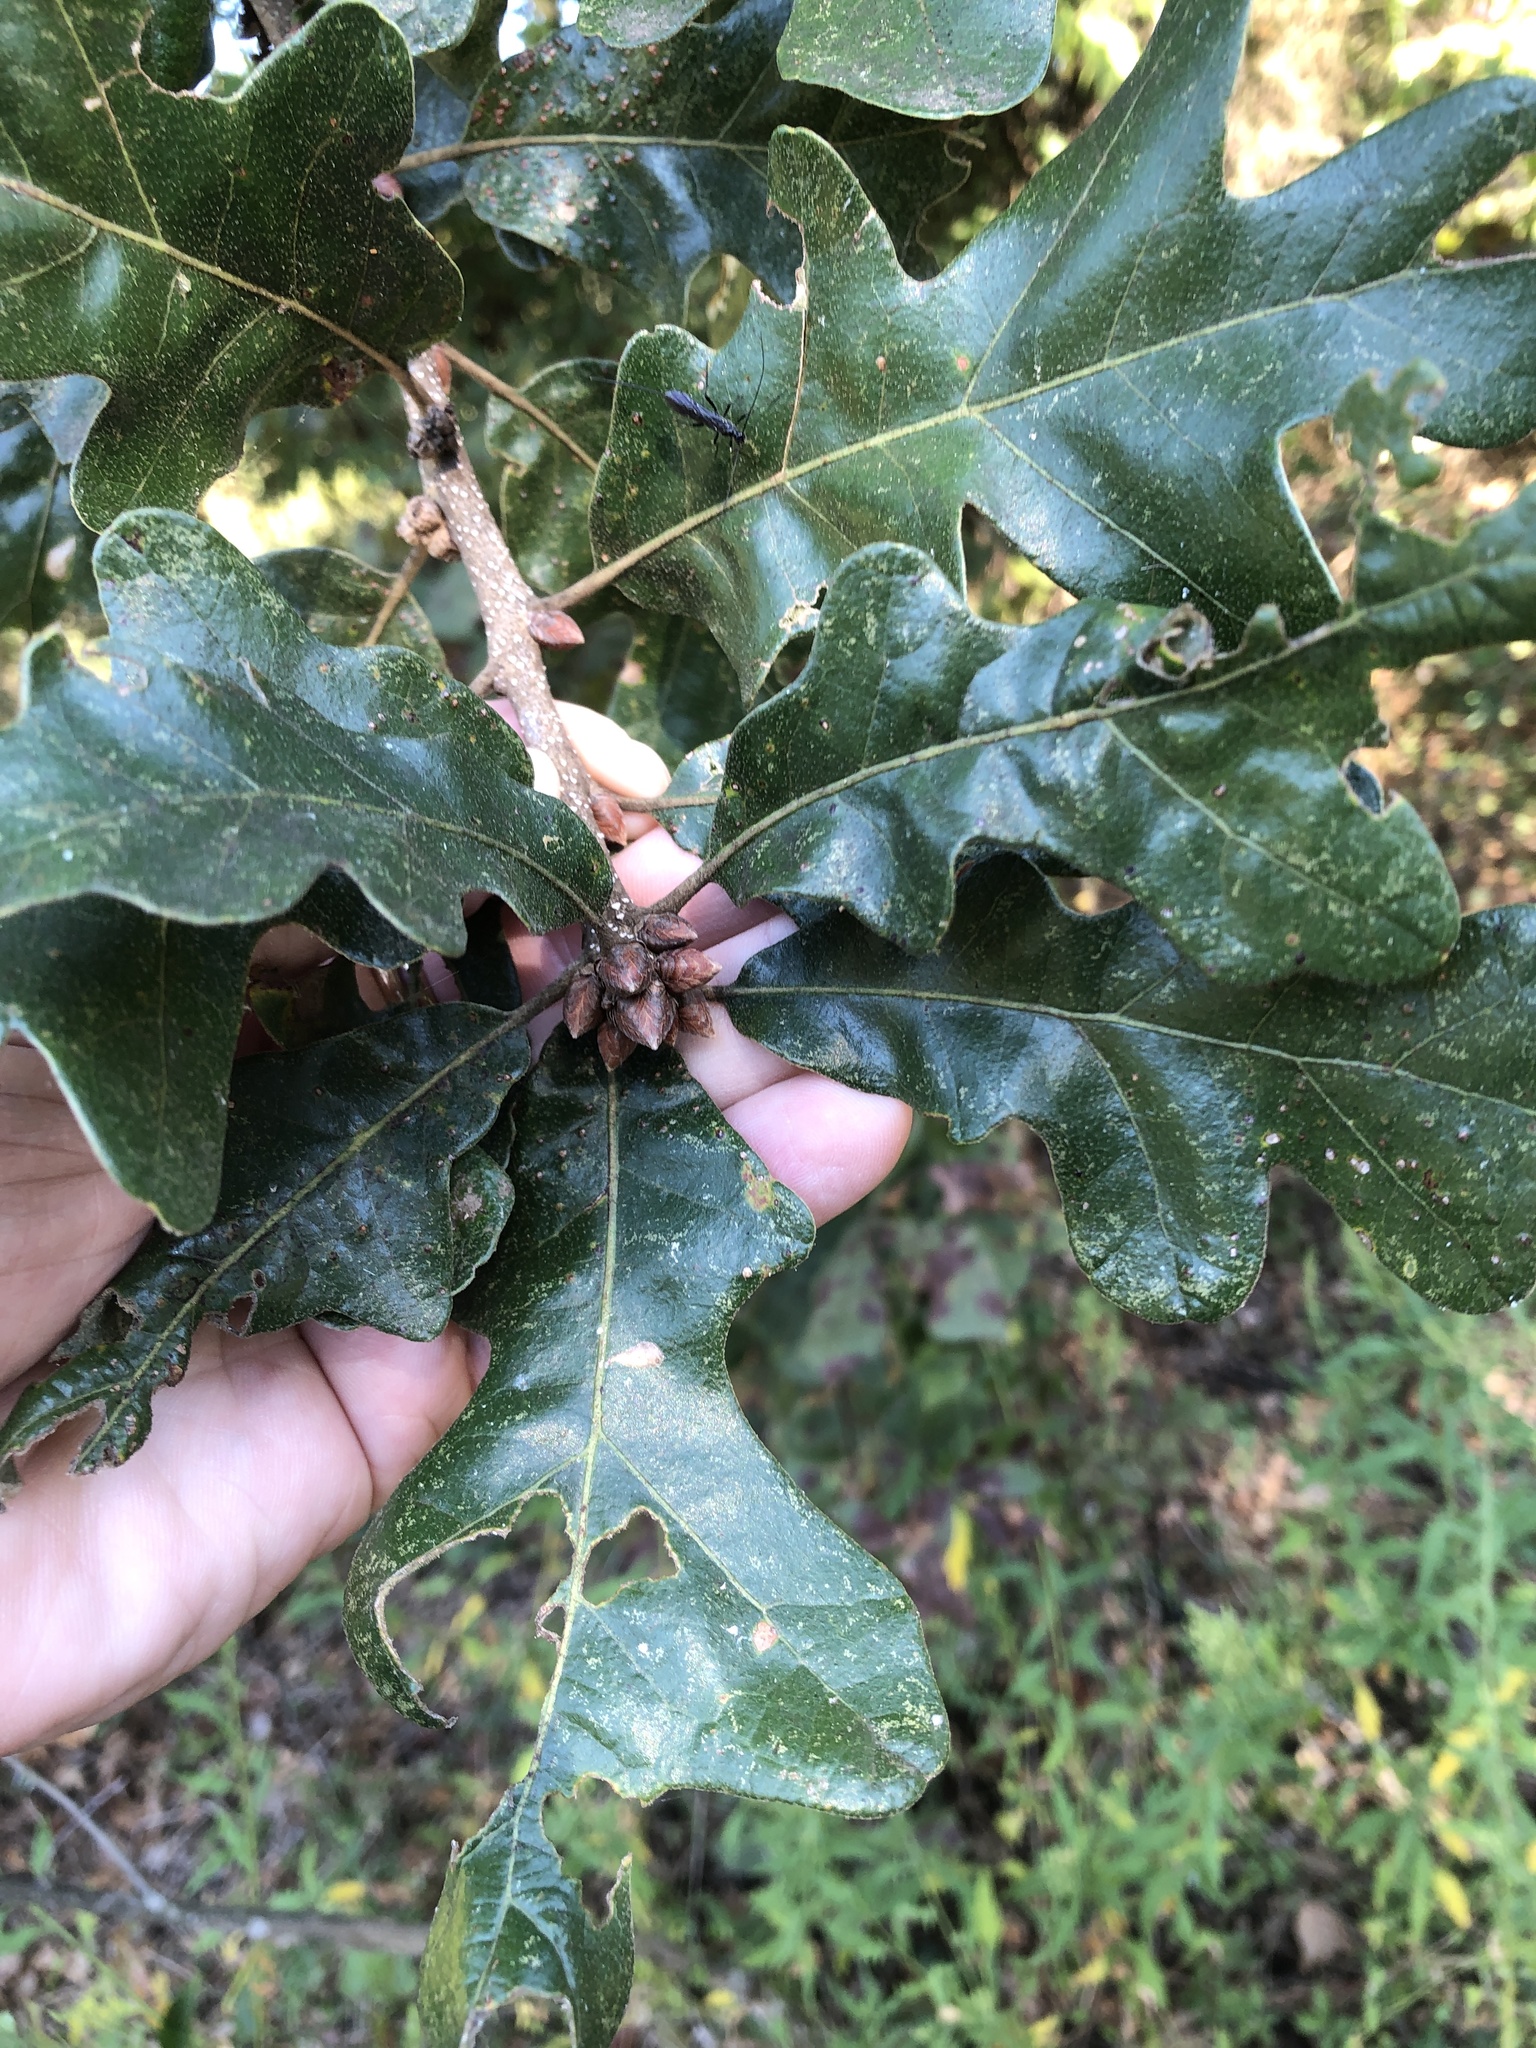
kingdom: Plantae
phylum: Tracheophyta
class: Magnoliopsida
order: Fagales
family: Fagaceae
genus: Quercus
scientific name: Quercus stellata
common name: Post oak
